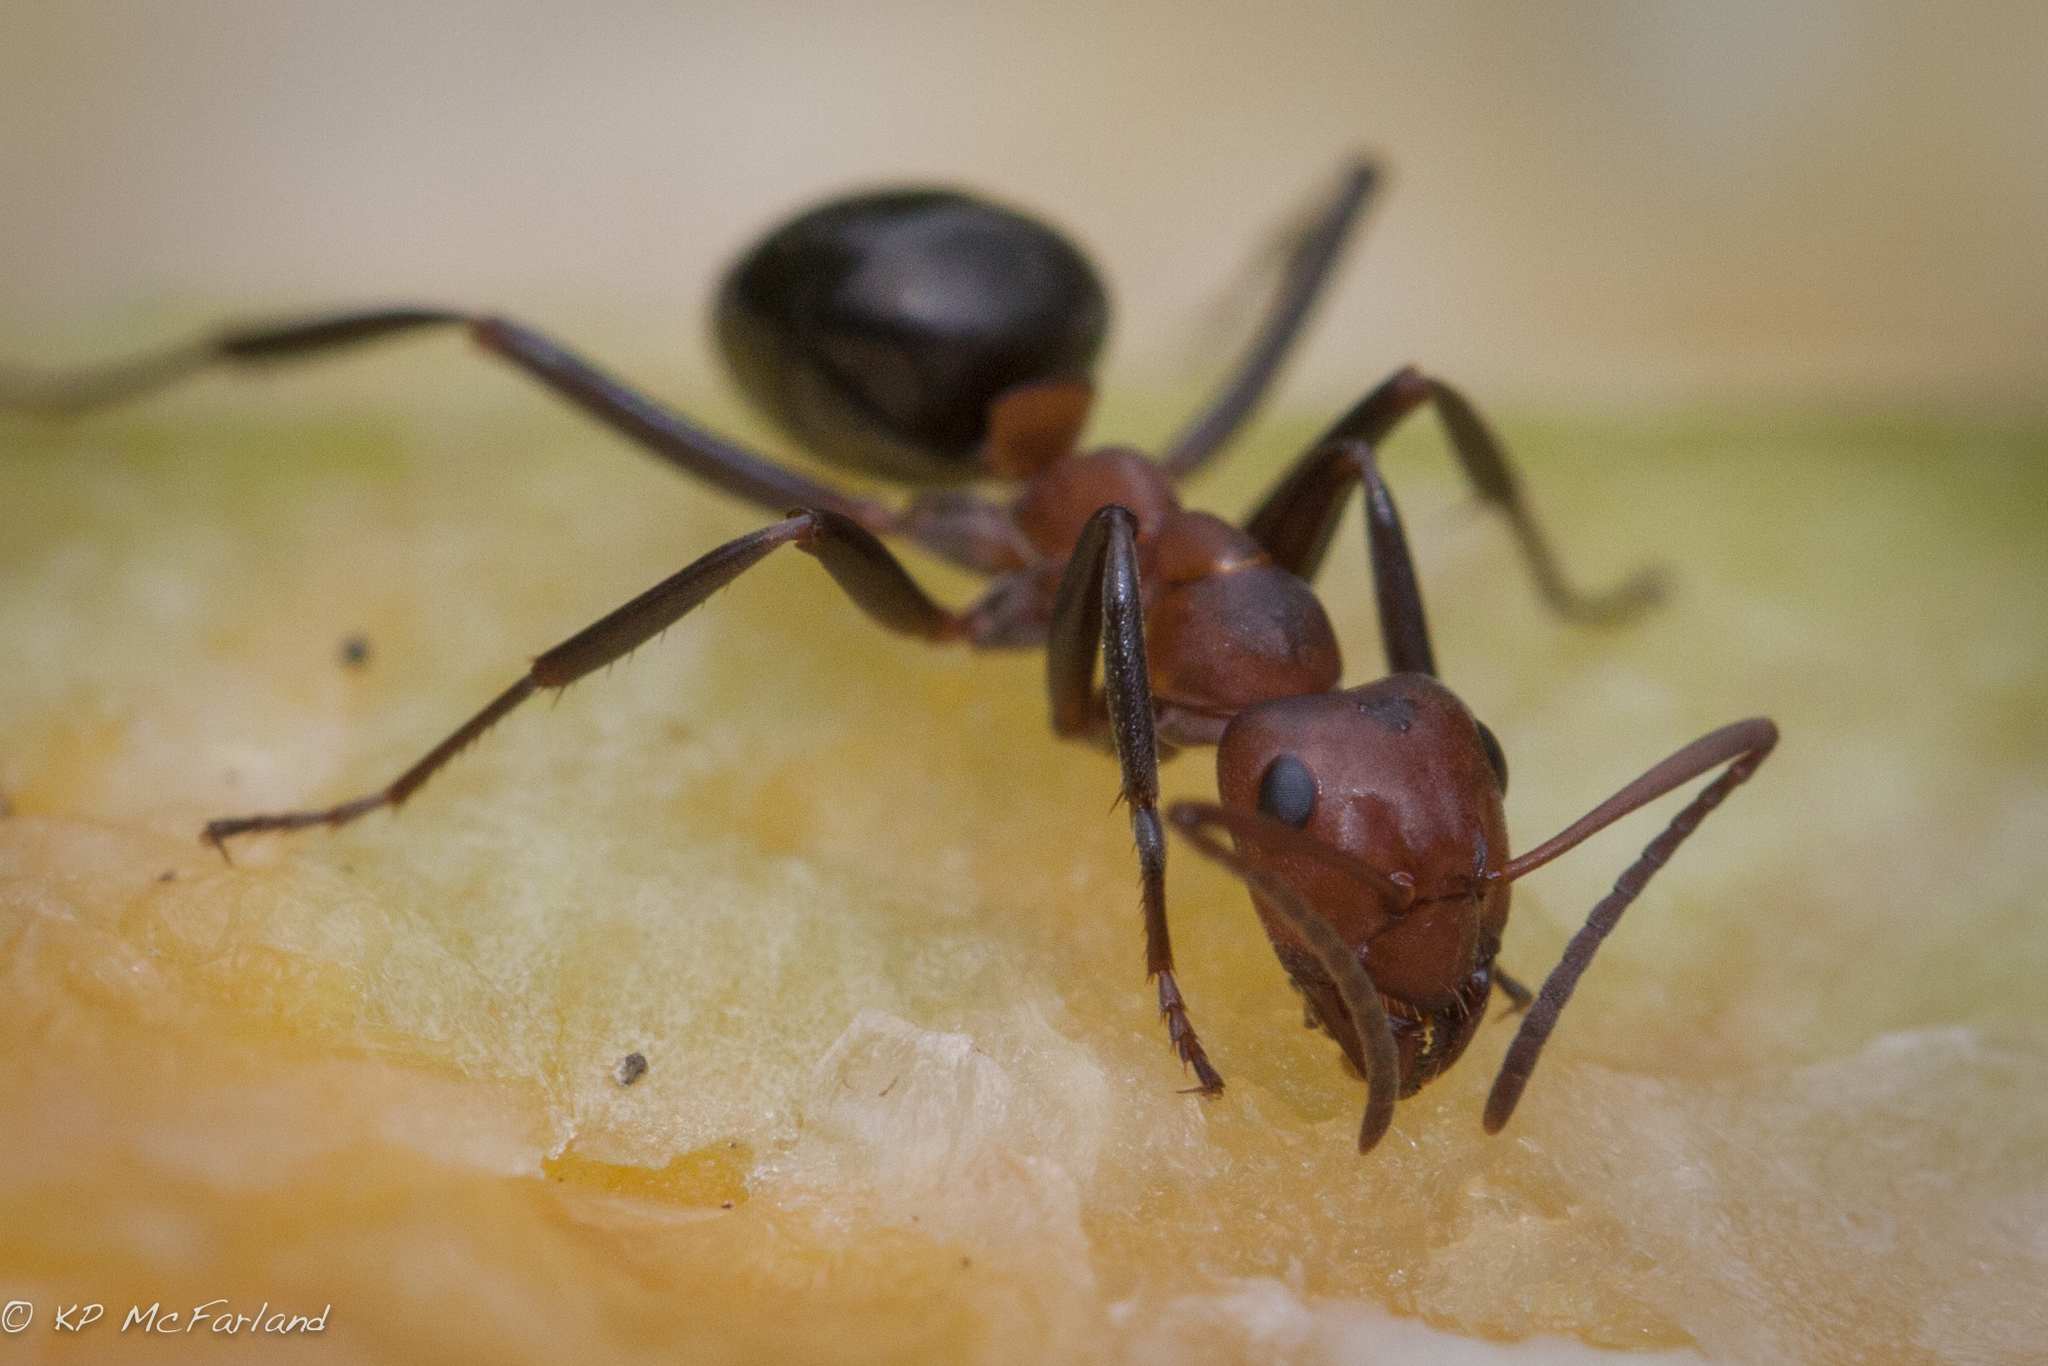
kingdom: Animalia
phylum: Arthropoda
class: Insecta
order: Hymenoptera
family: Formicidae
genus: Formica
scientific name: Formica exsectoides
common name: Allegheny mound ant
